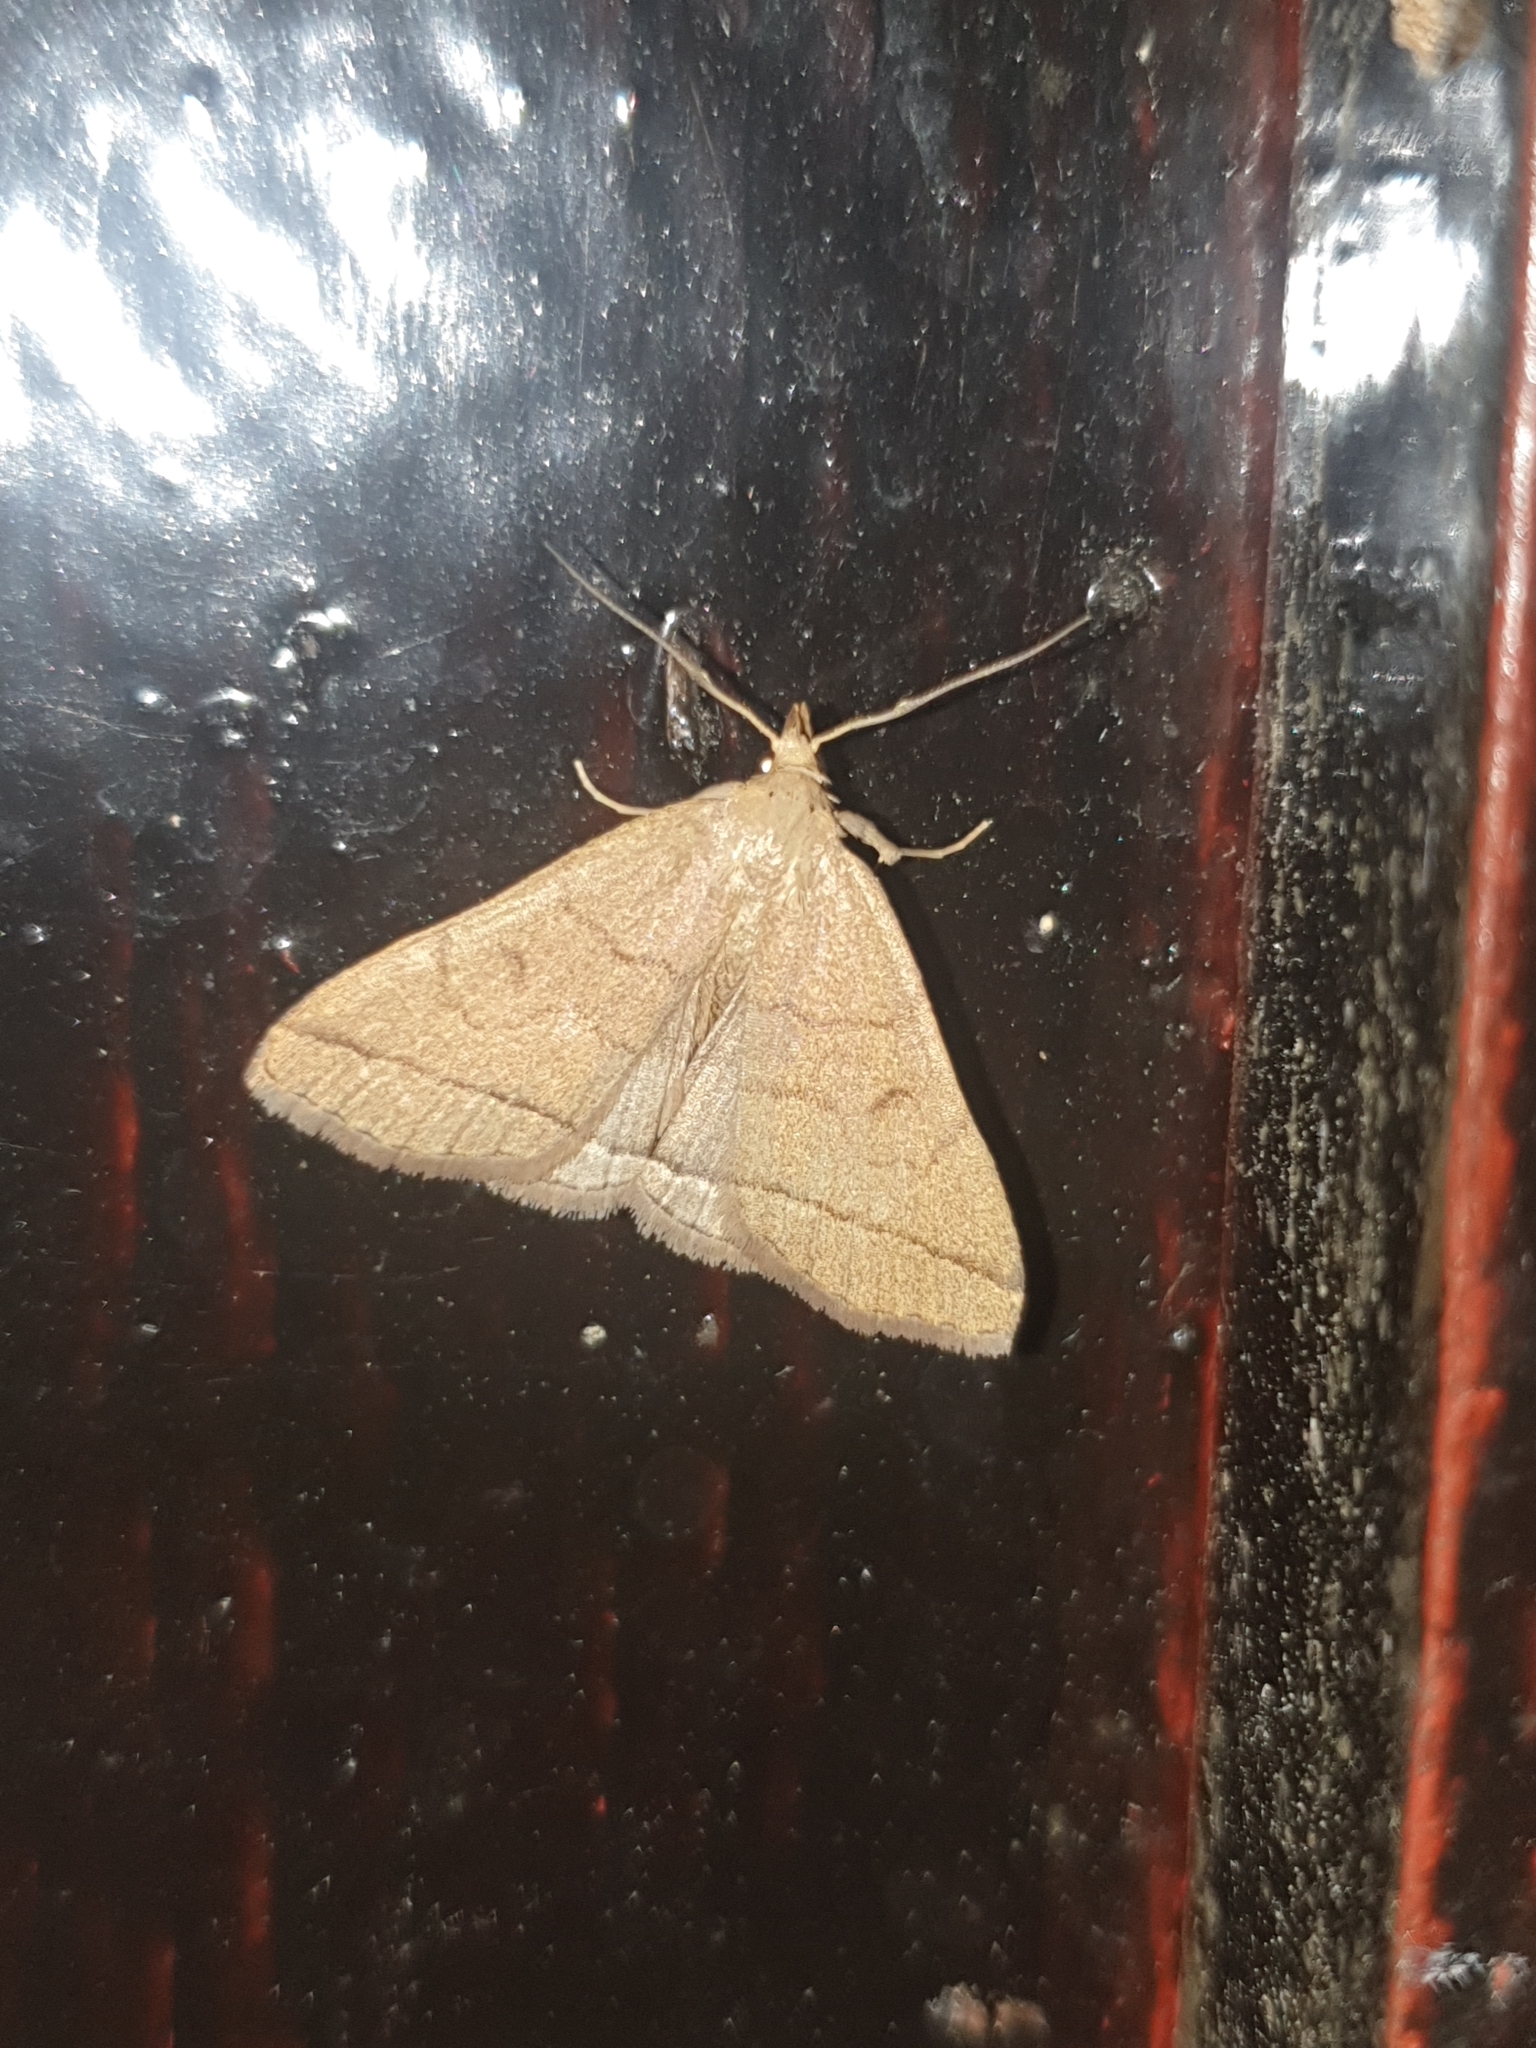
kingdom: Animalia
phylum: Arthropoda
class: Insecta
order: Lepidoptera
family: Erebidae
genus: Herminia
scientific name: Herminia tarsipennalis
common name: Fan-foot
